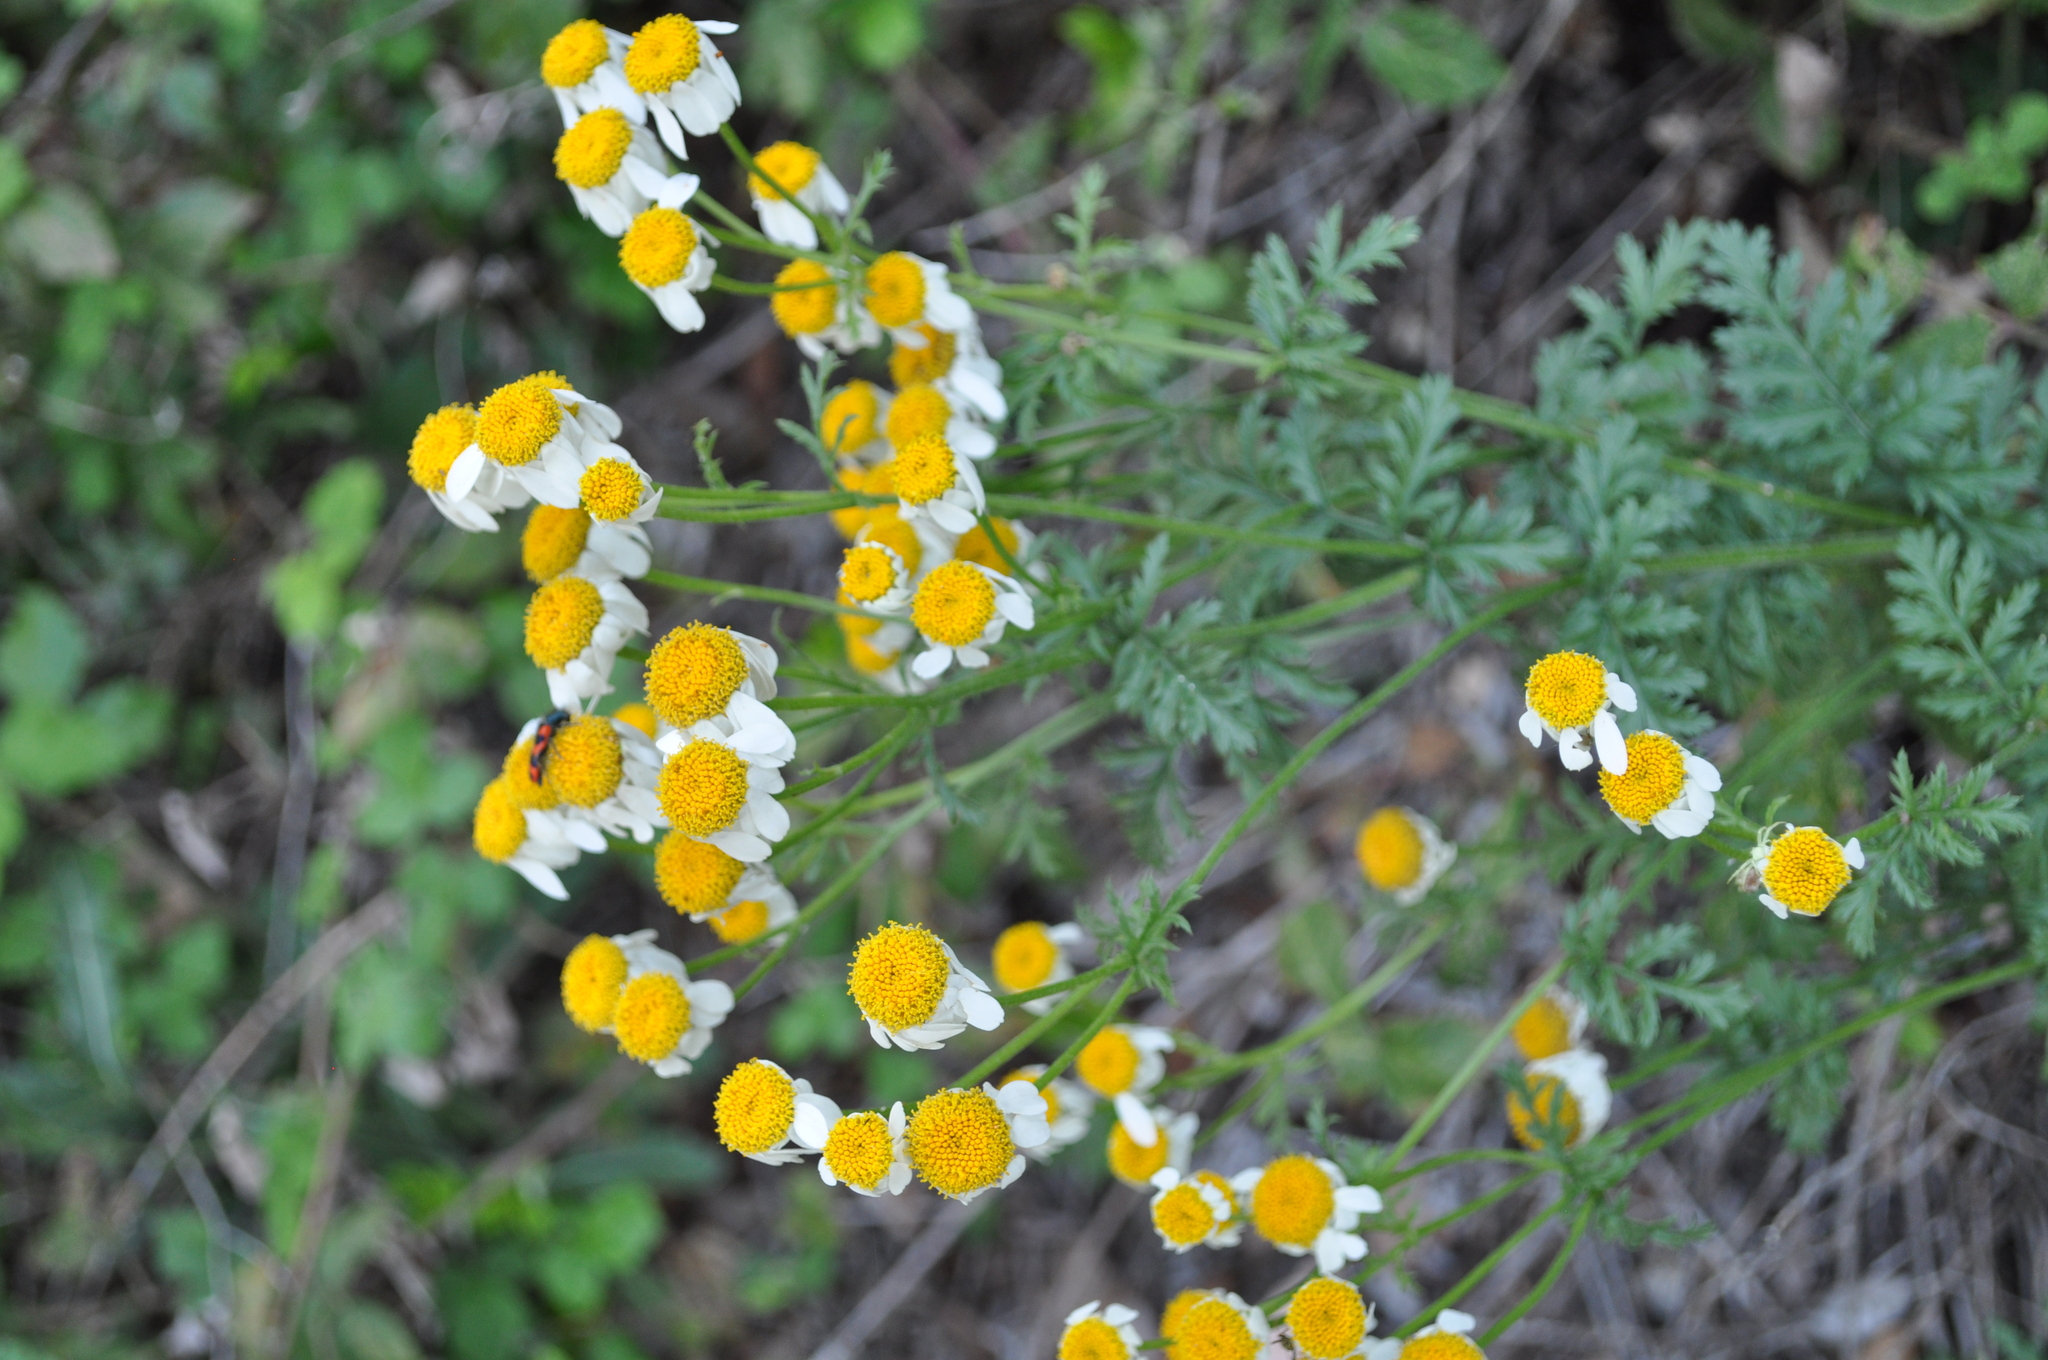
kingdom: Plantae
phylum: Tracheophyta
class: Magnoliopsida
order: Asterales
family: Asteraceae
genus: Tanacetum
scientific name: Tanacetum corymbosum
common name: Scentless feverfew
